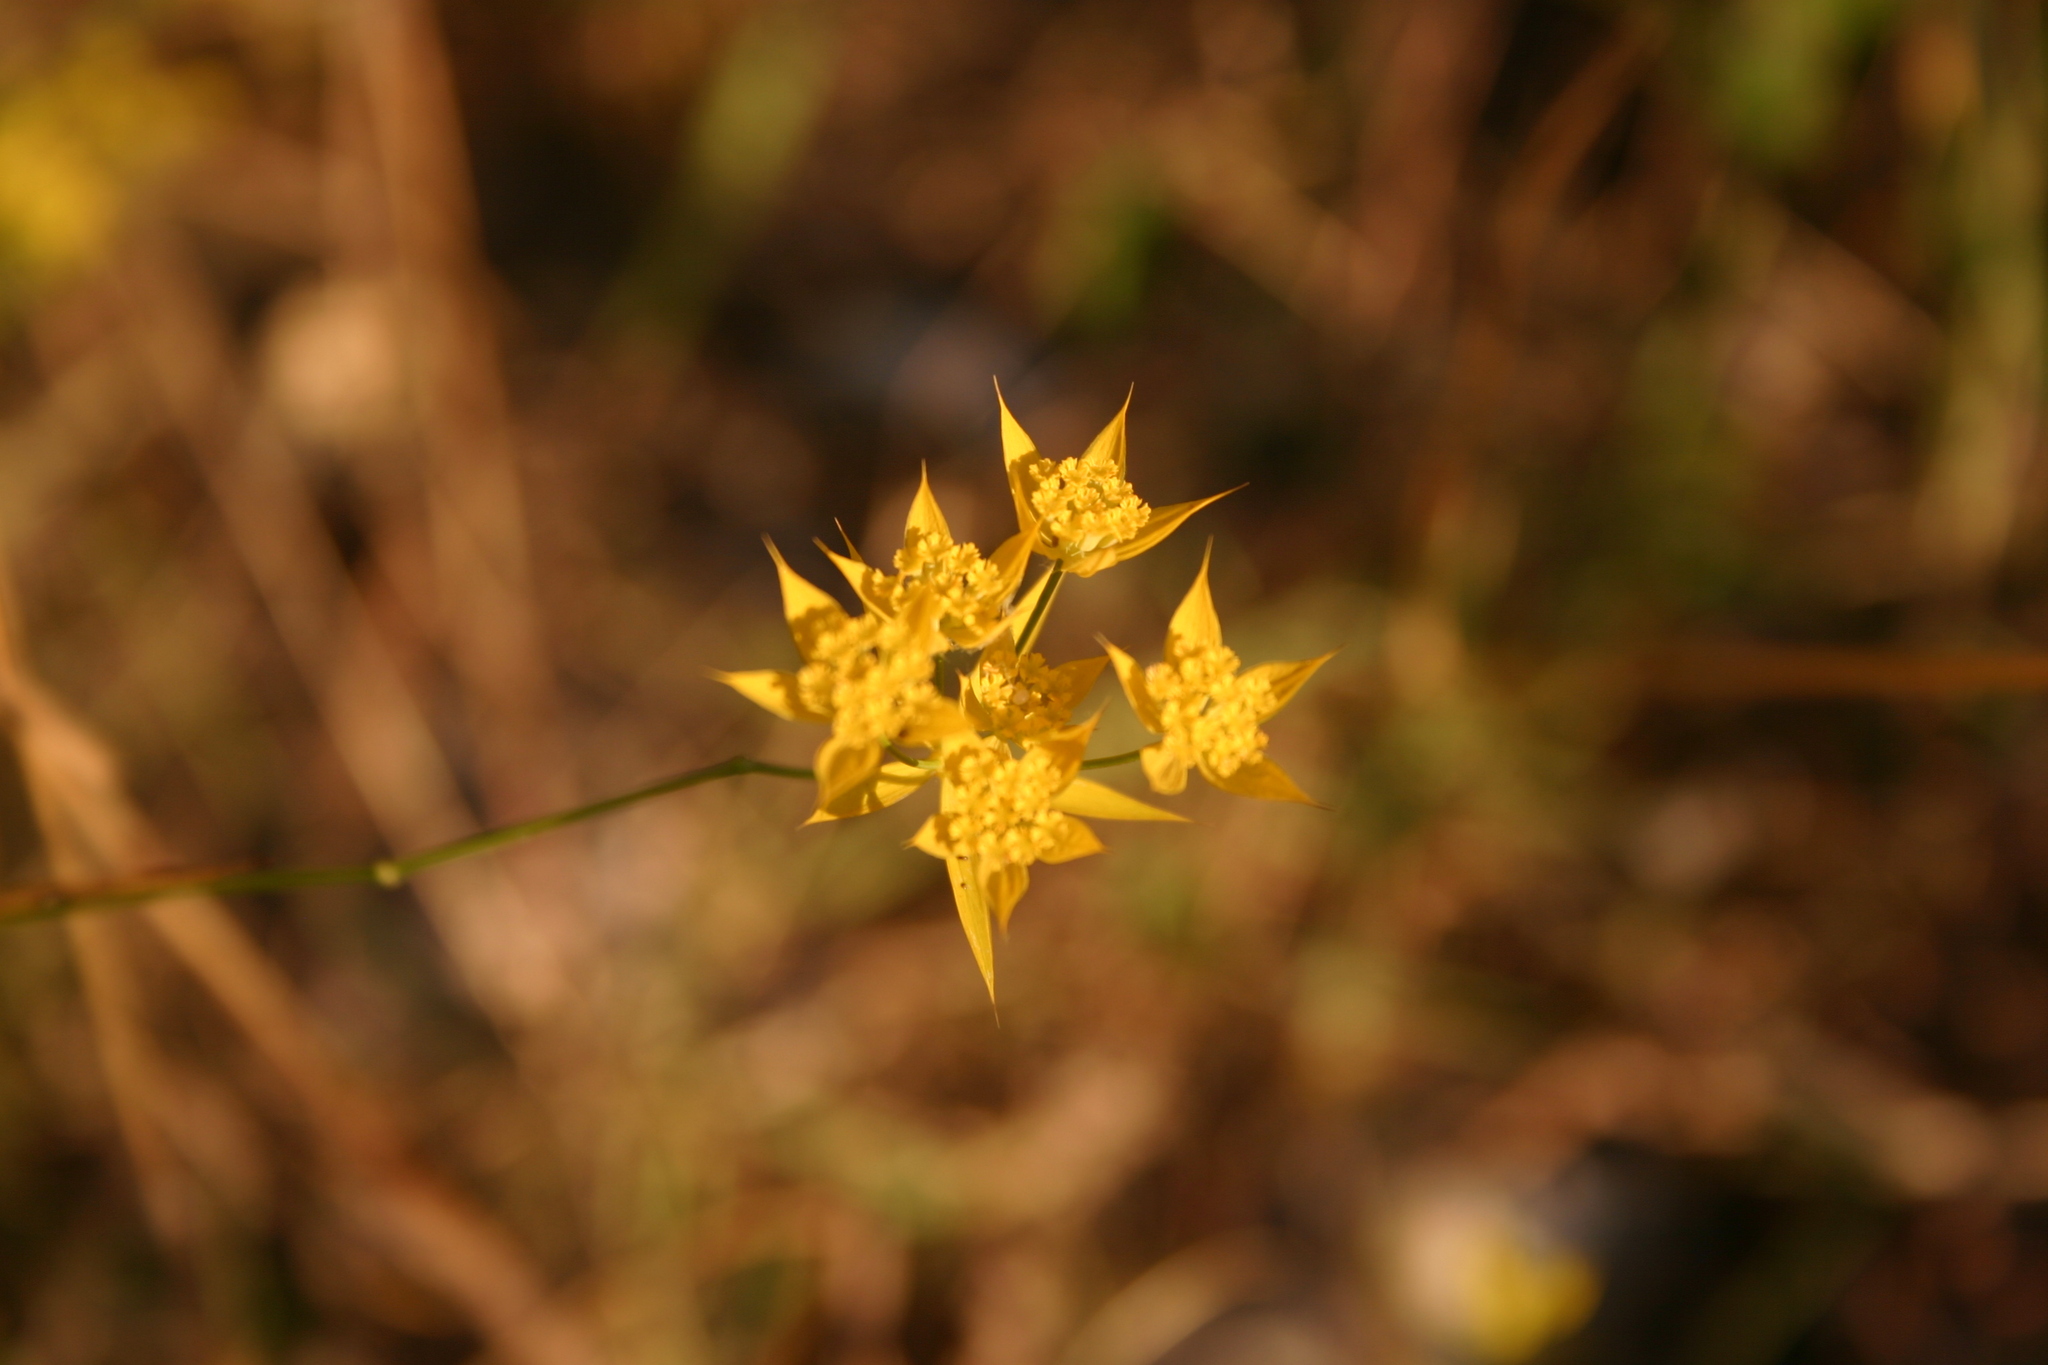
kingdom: Plantae
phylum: Tracheophyta
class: Magnoliopsida
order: Apiales
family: Apiaceae
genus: Bupleurum
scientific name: Bupleurum veronense
